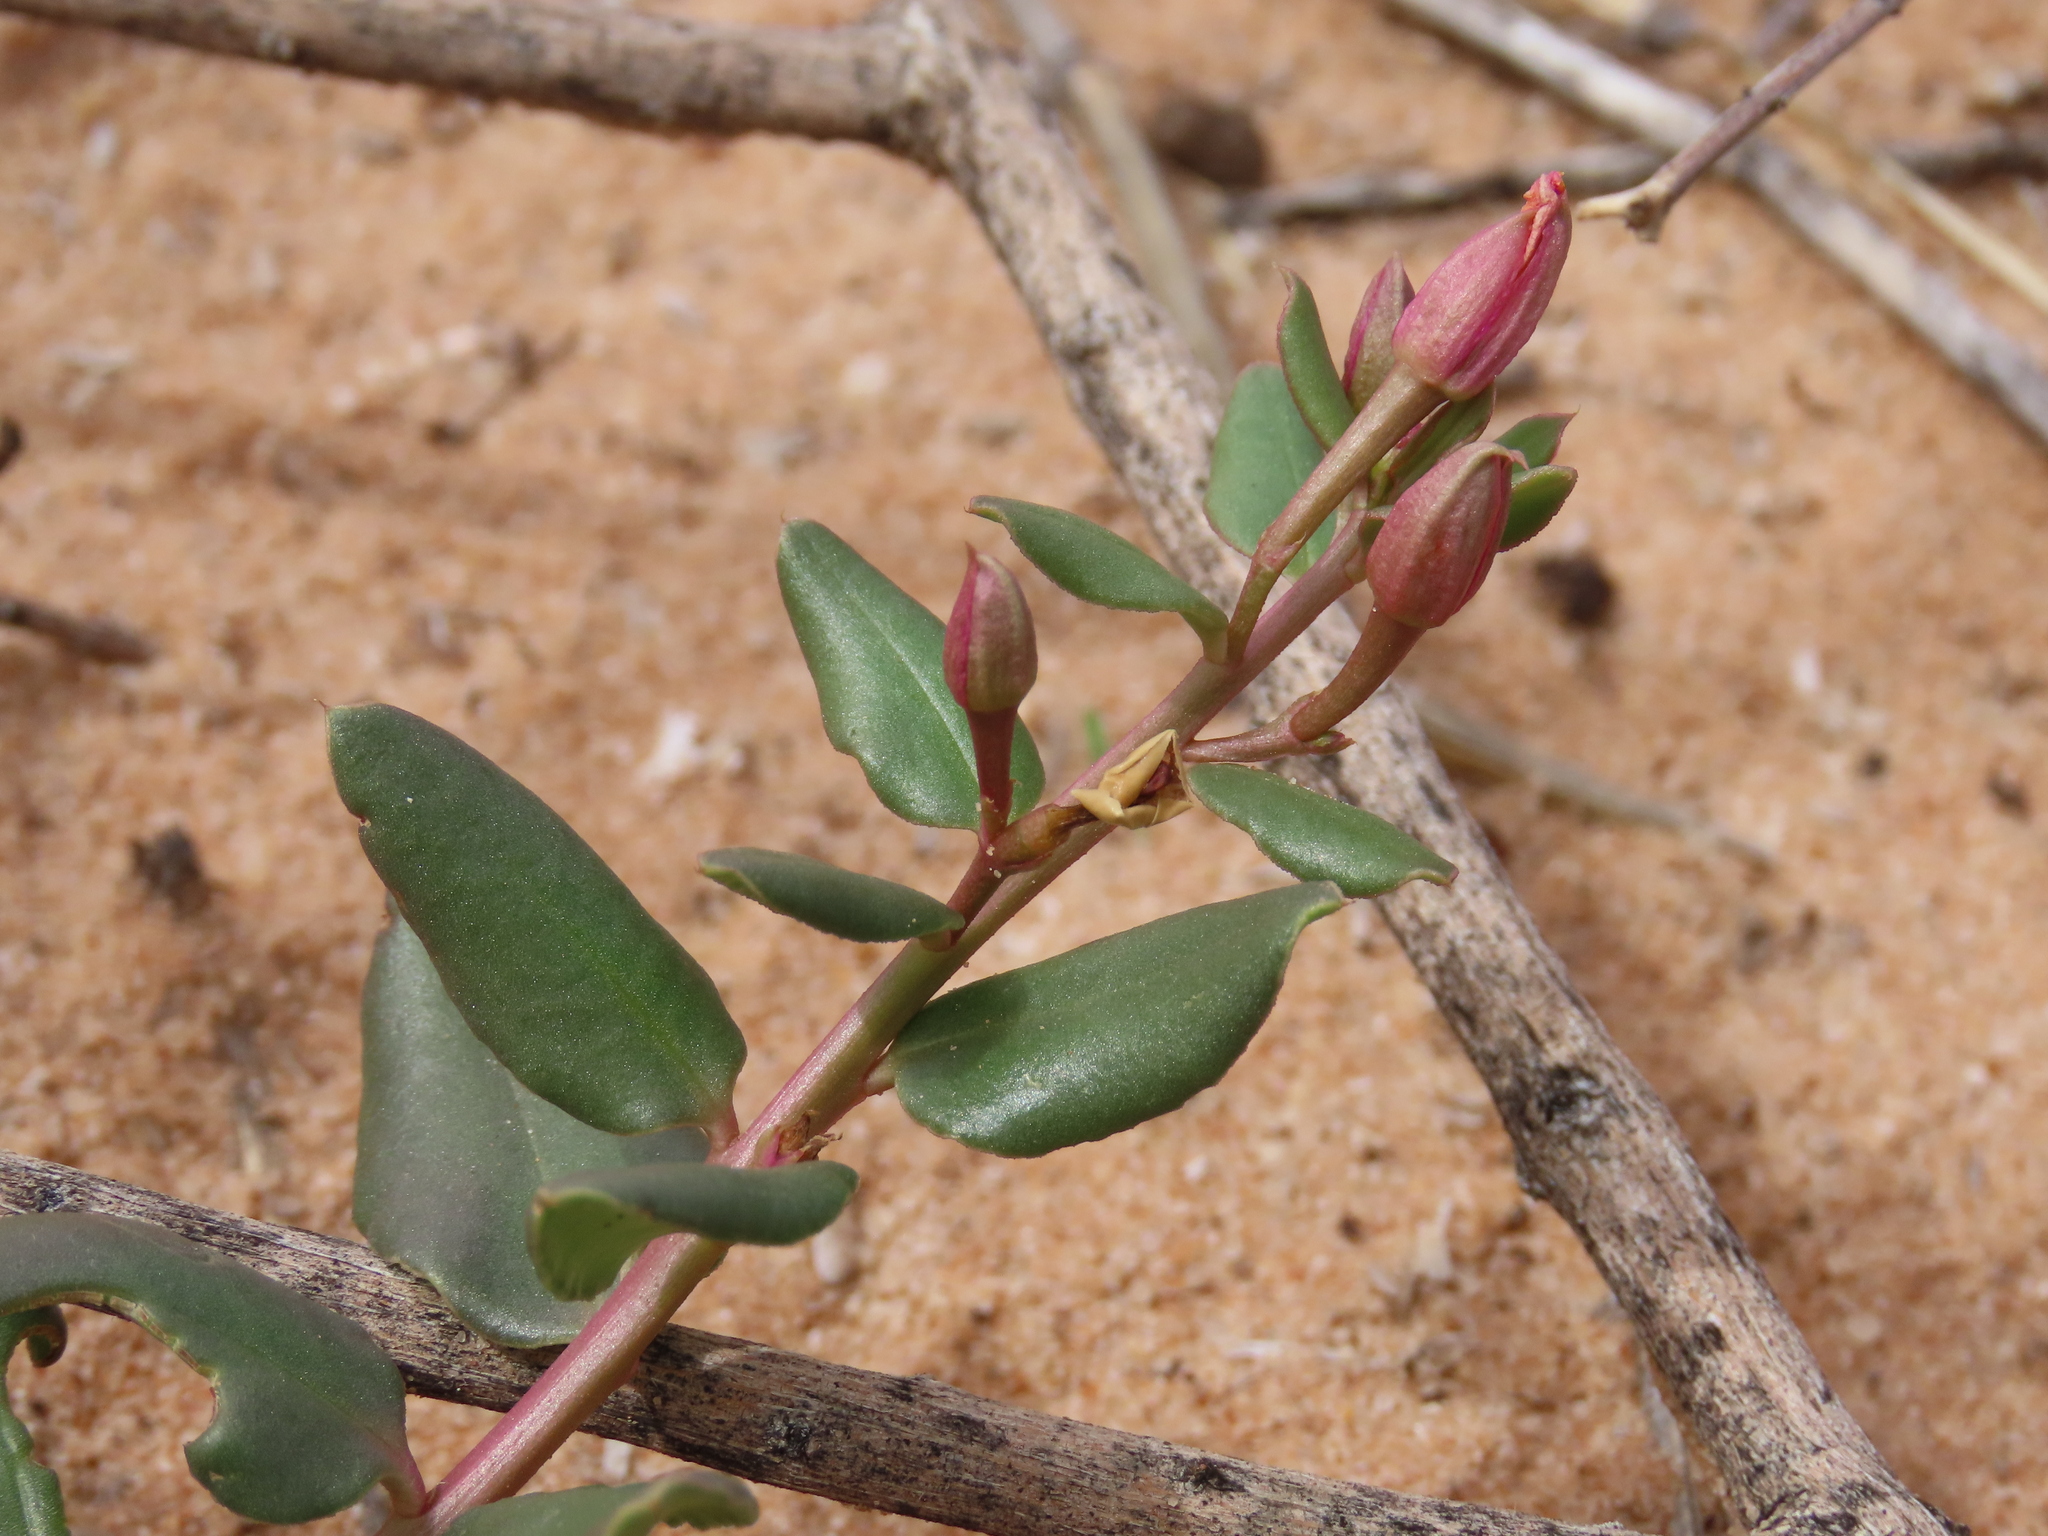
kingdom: Plantae
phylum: Tracheophyta
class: Magnoliopsida
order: Caryophyllales
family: Talinaceae
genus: Talinum
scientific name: Talinum arnotii
